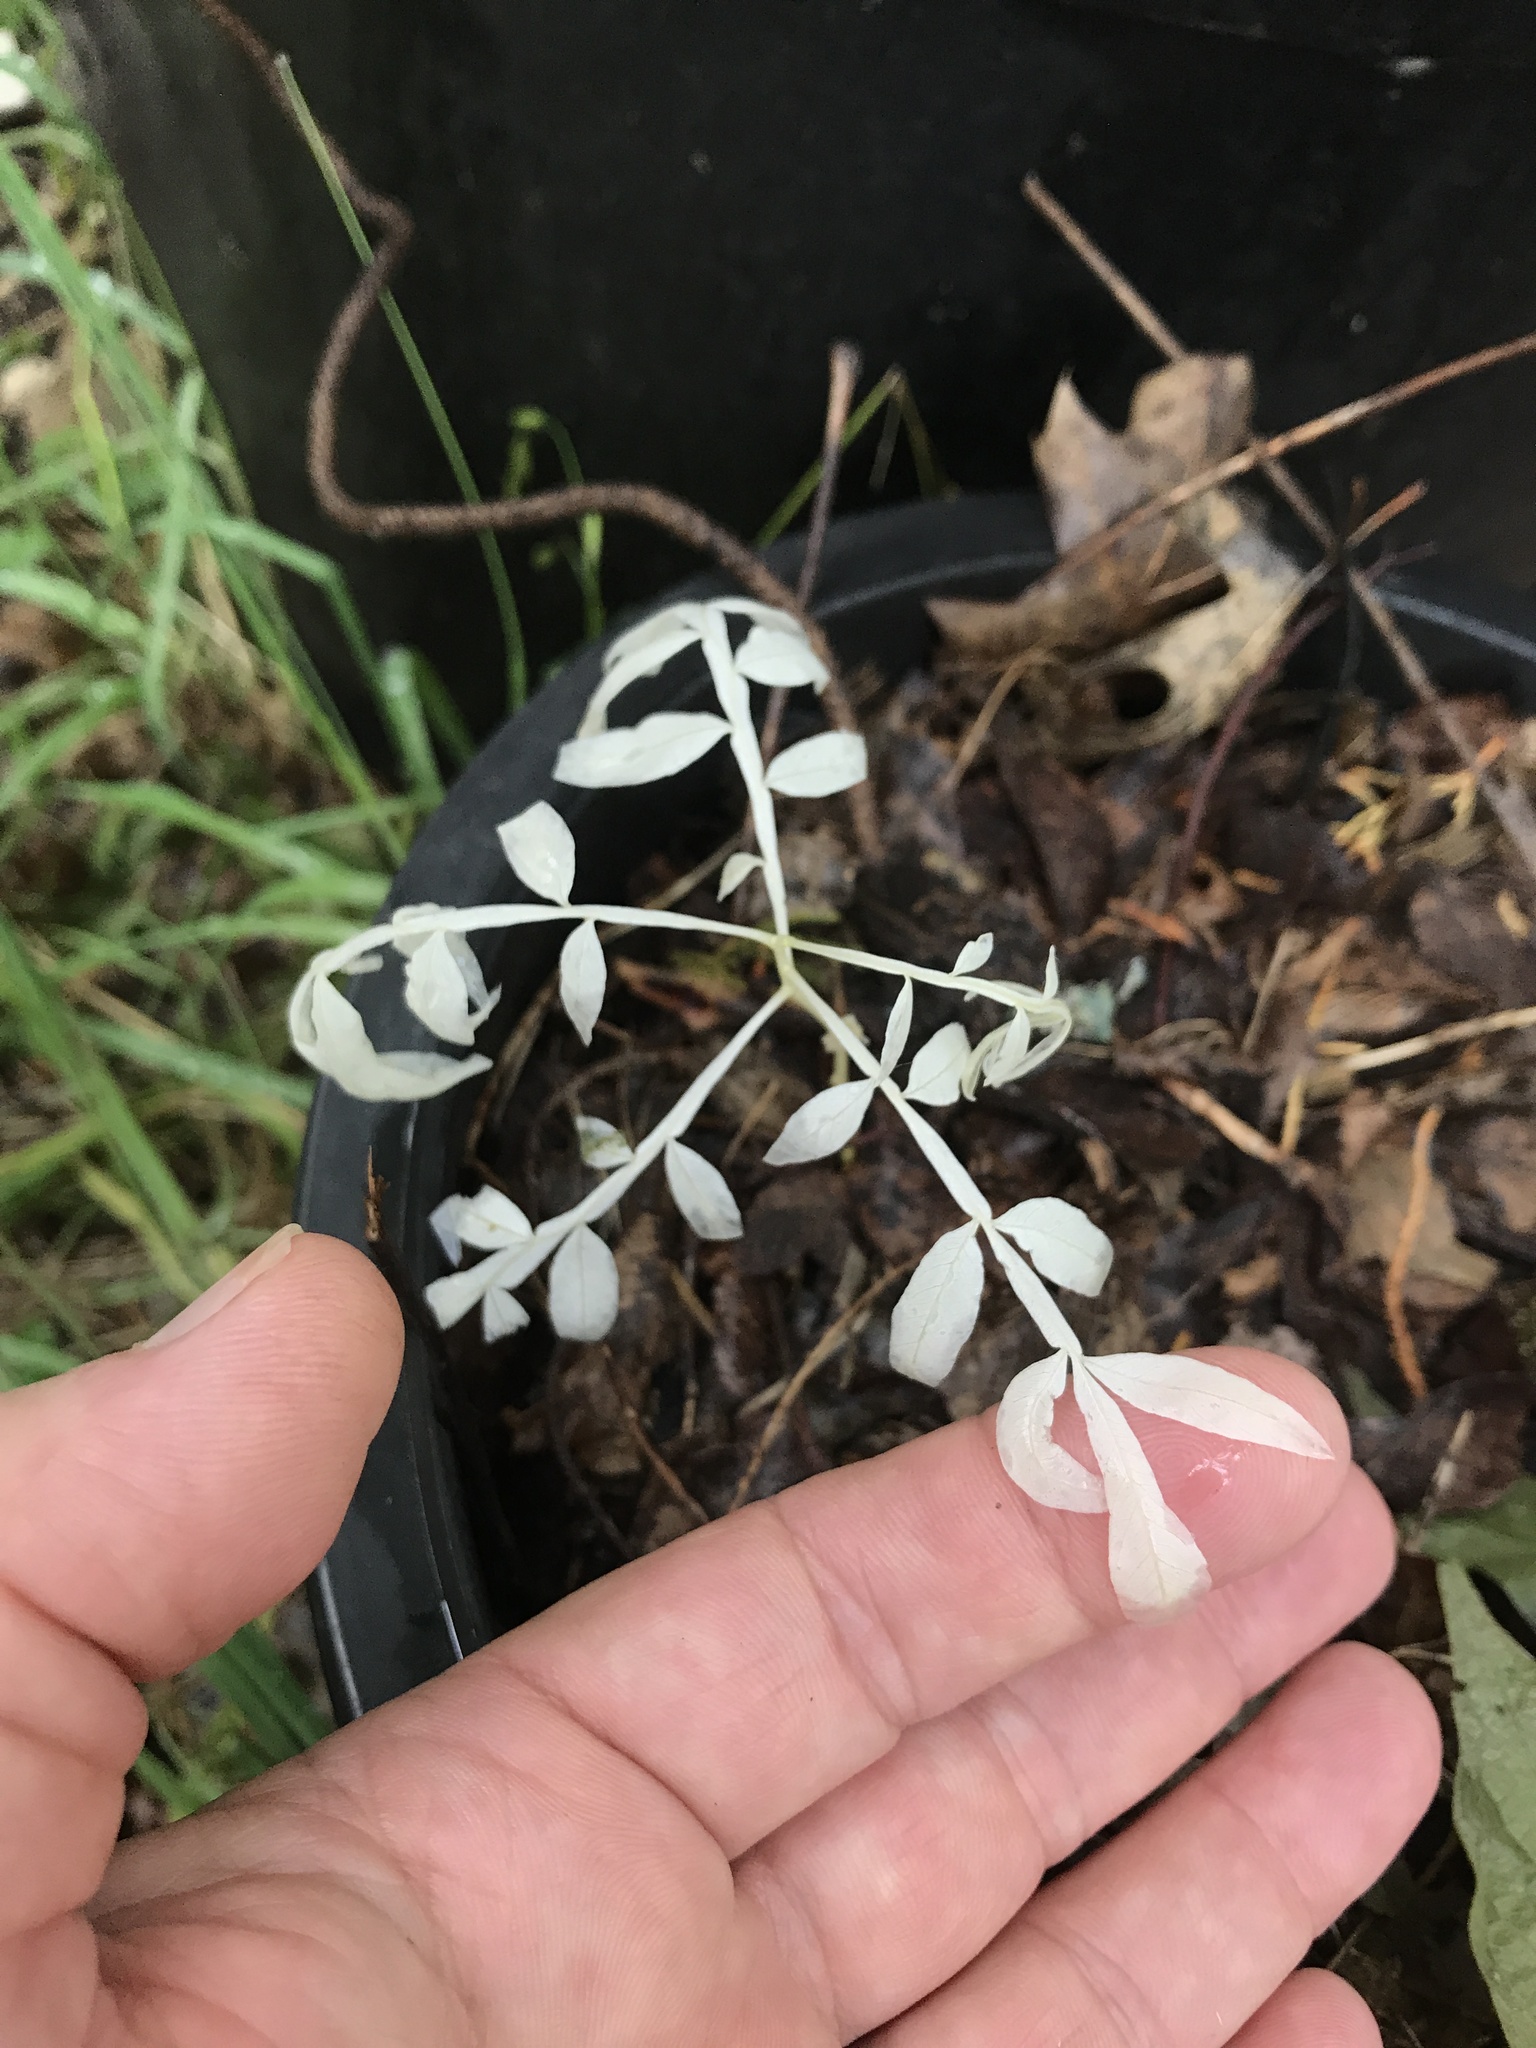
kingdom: Plantae
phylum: Tracheophyta
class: Magnoliopsida
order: Sapindales
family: Anacardiaceae
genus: Rhus
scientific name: Rhus copallina
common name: Shining sumac
